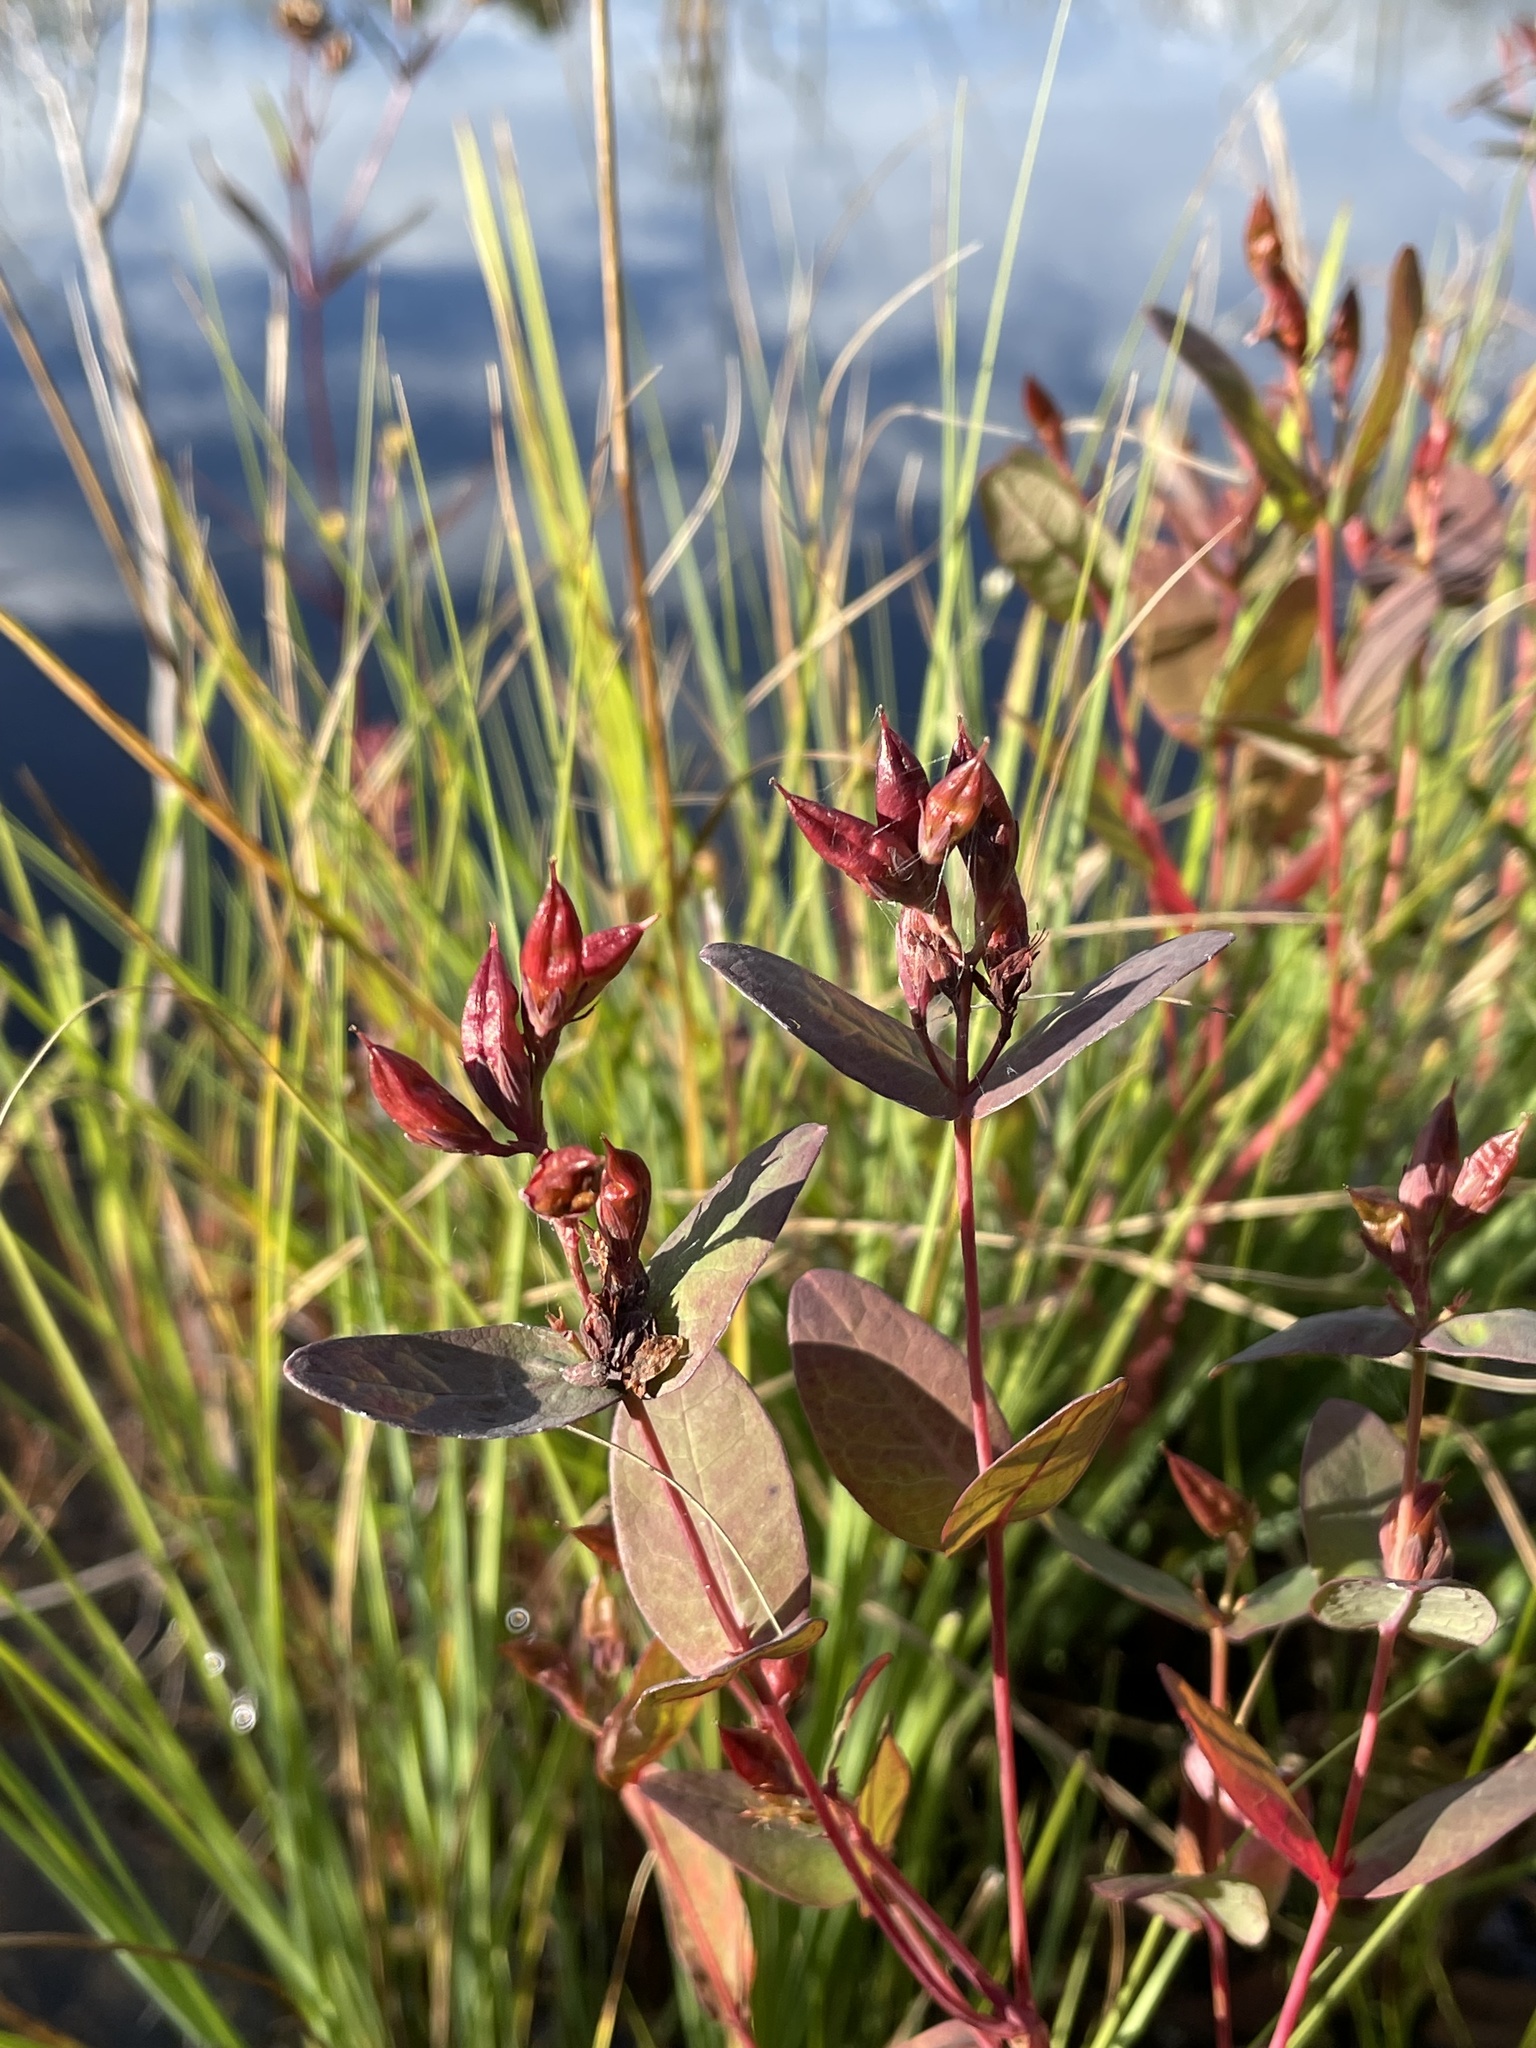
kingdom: Plantae
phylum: Tracheophyta
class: Magnoliopsida
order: Malpighiales
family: Hypericaceae
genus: Triadenum
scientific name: Triadenum fraseri
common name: Fraser's marsh st. johnswort
